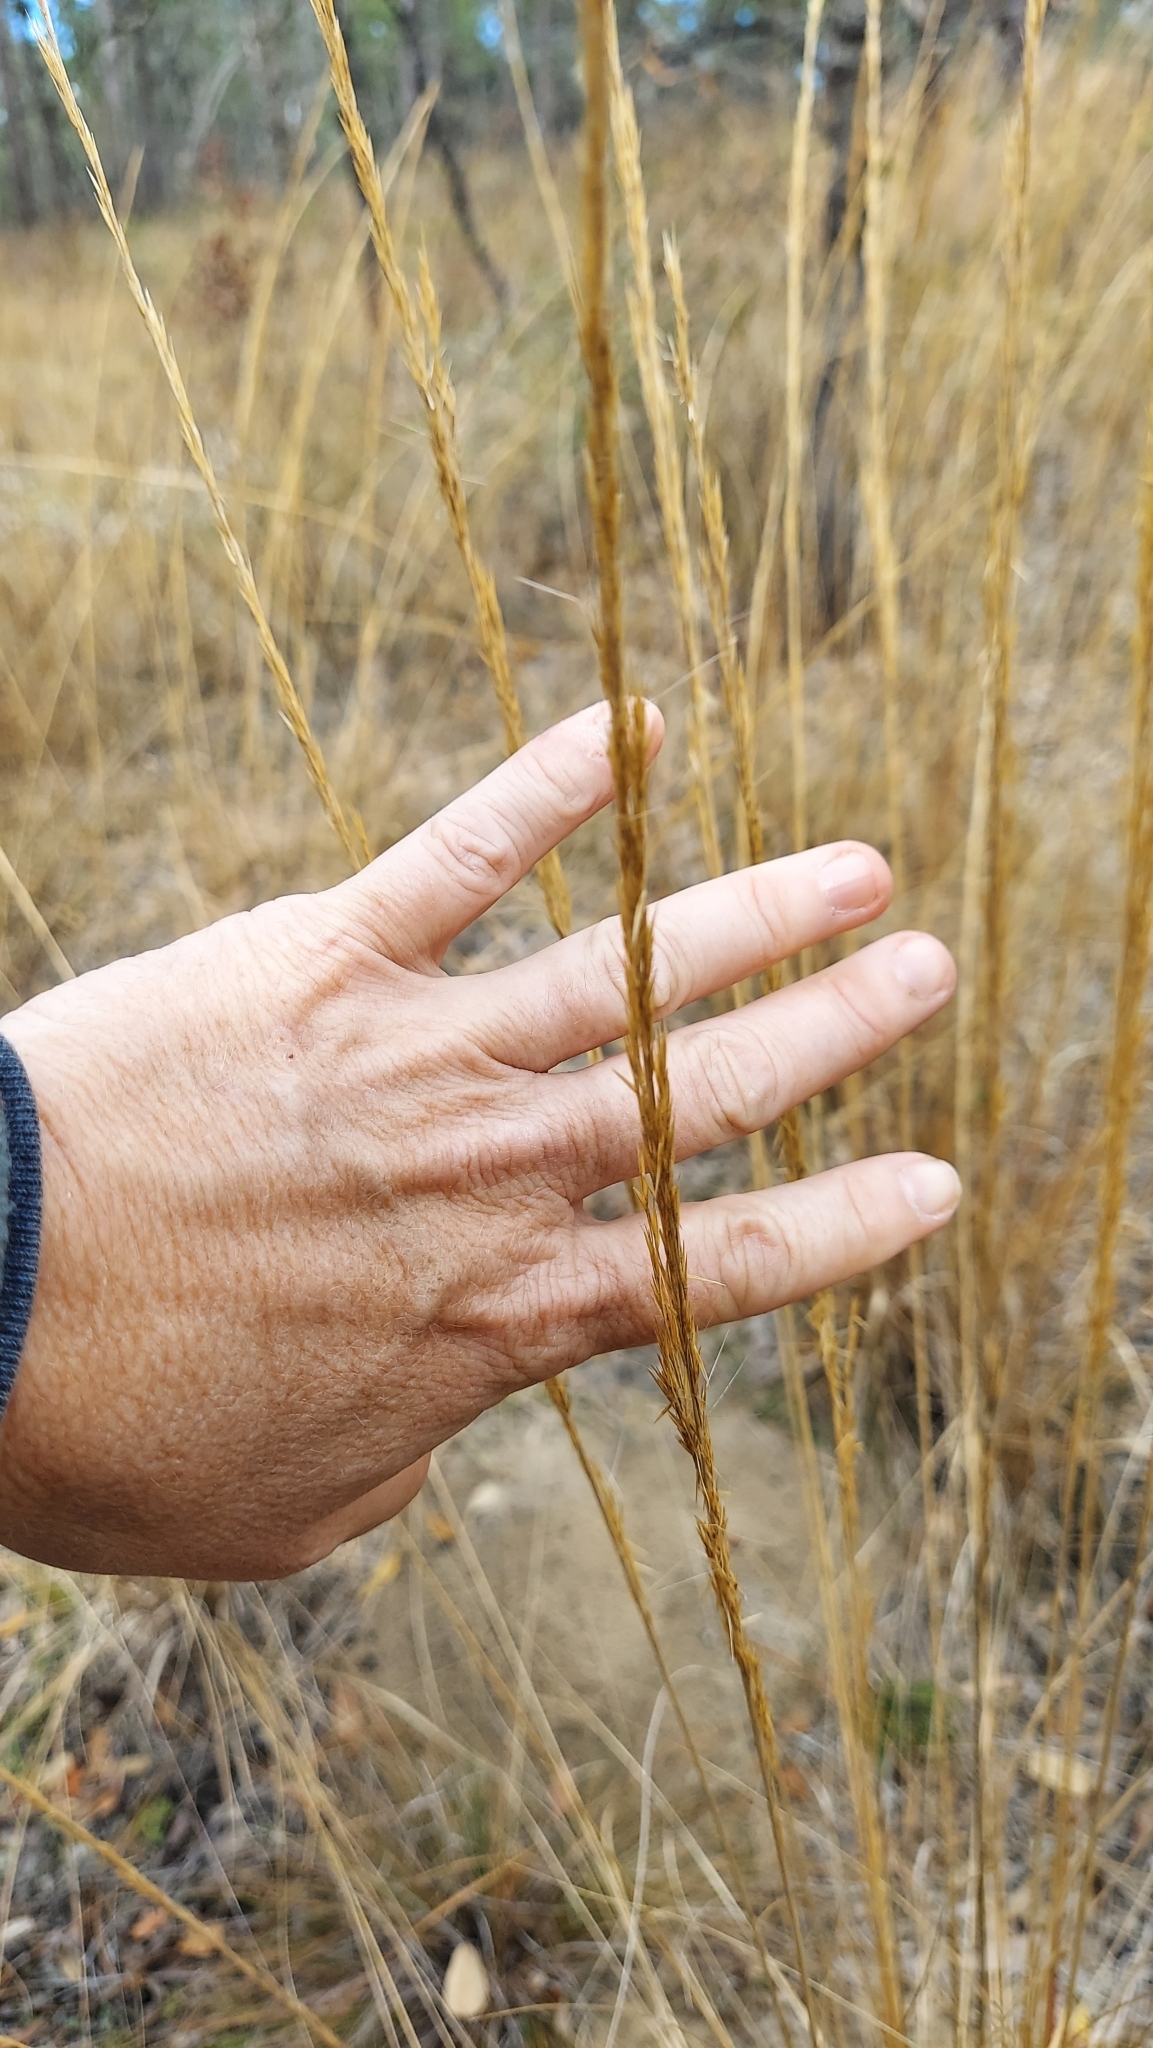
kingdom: Plantae
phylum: Tracheophyta
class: Liliopsida
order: Poales
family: Poaceae
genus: Aristida
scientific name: Aristida condensata
